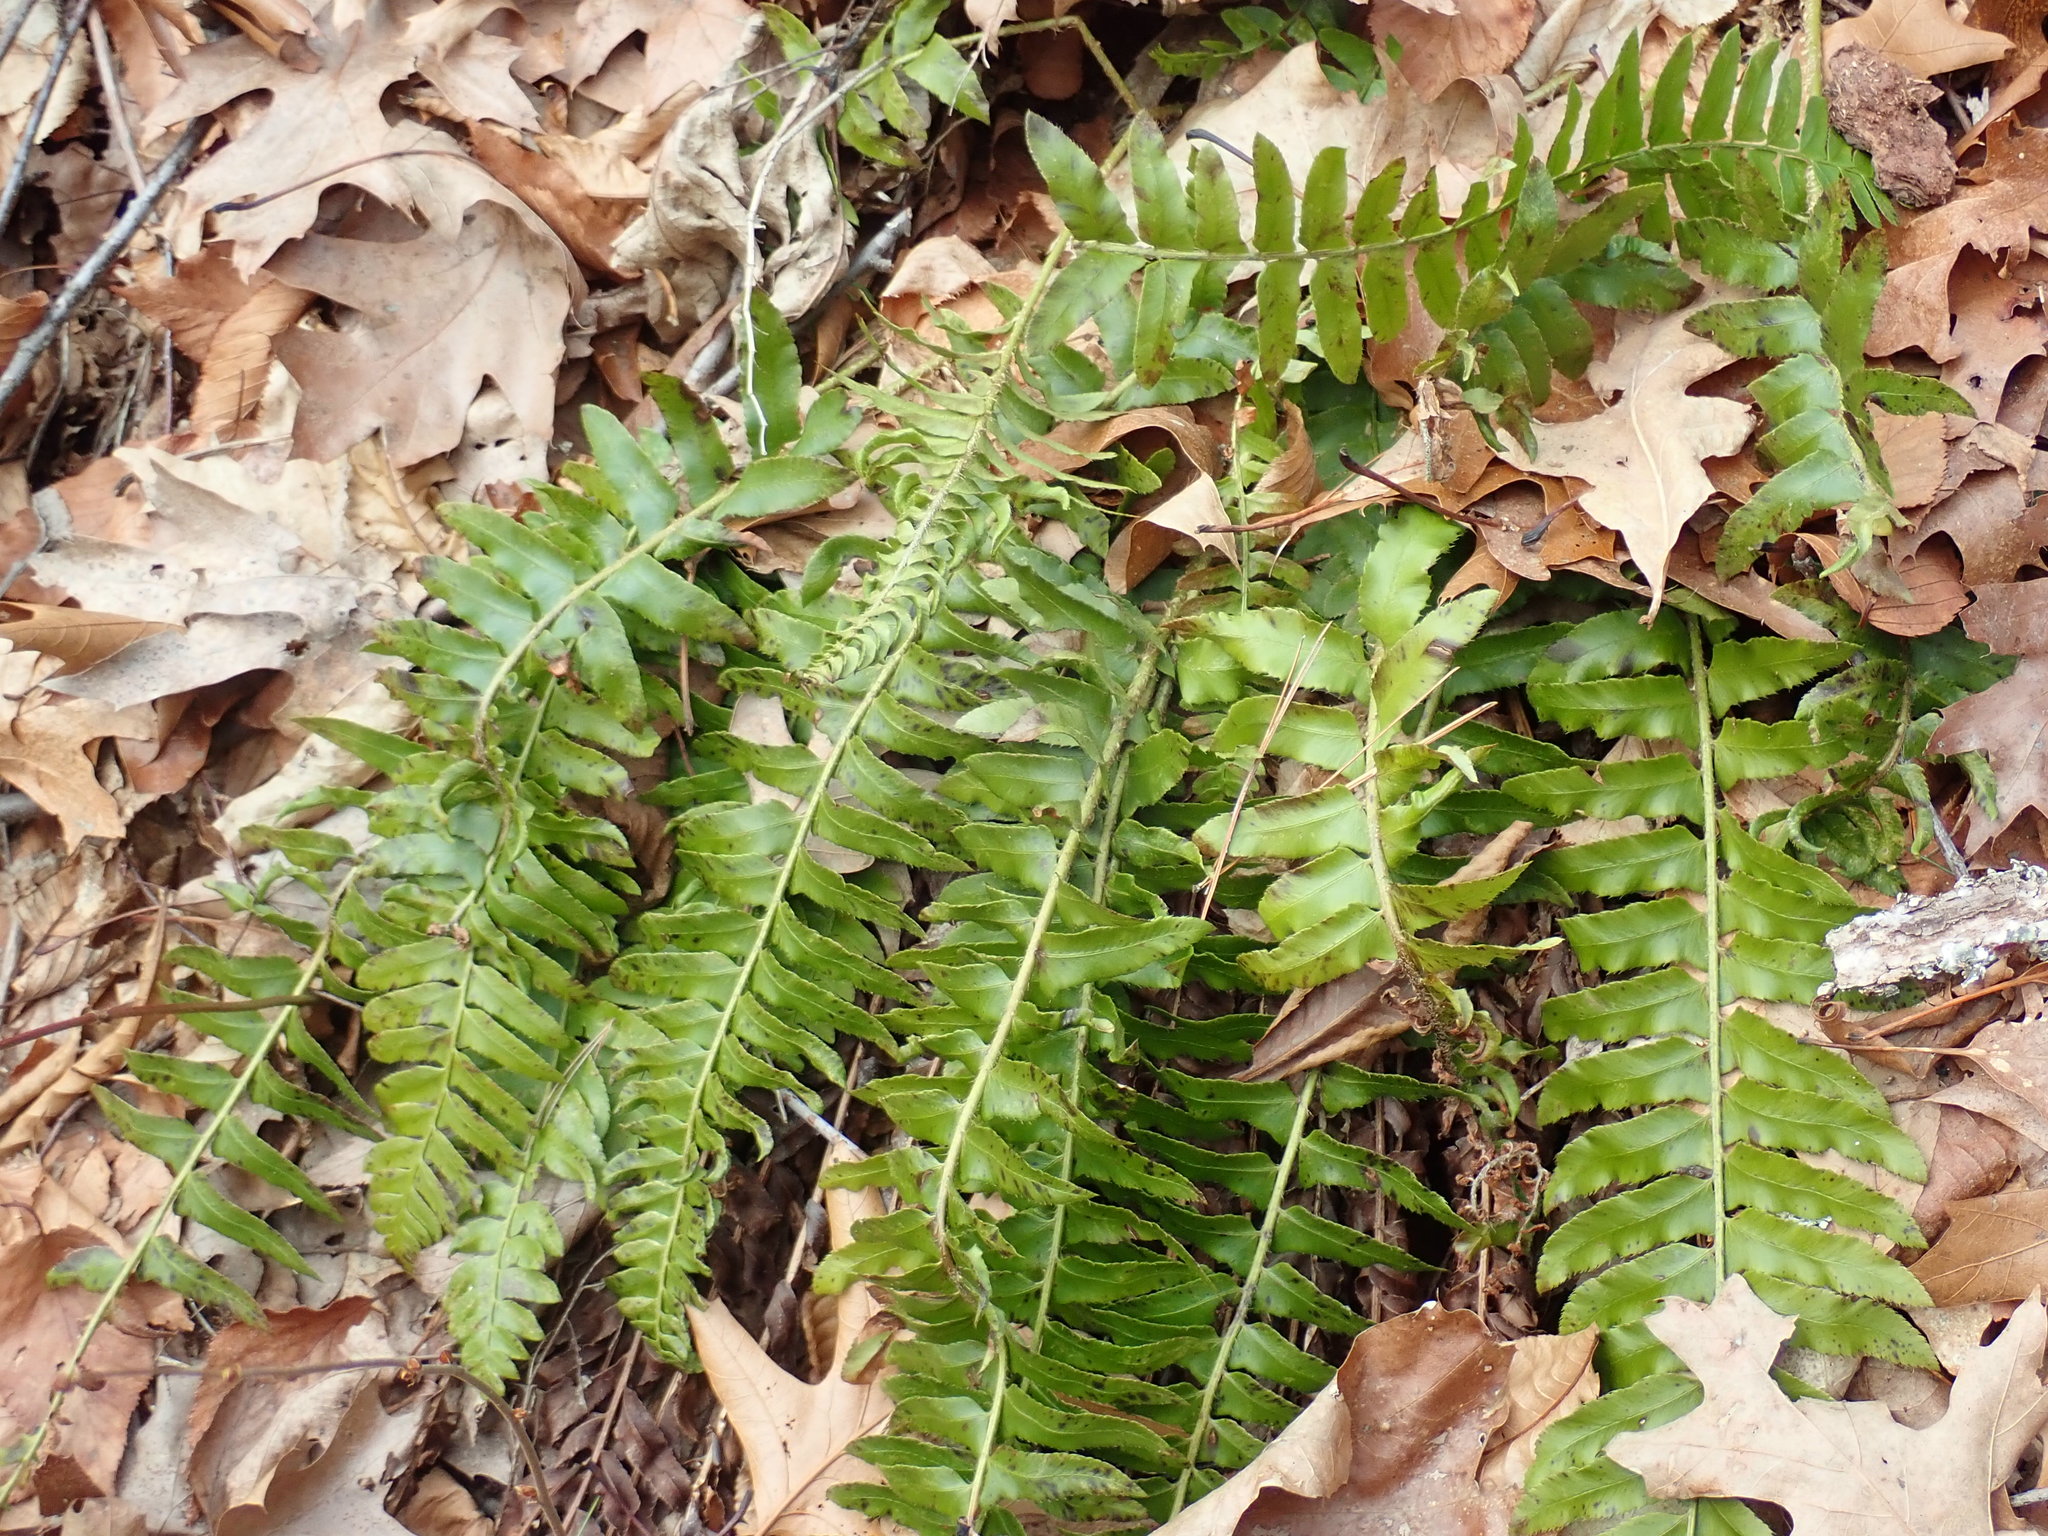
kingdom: Plantae
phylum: Tracheophyta
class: Polypodiopsida
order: Polypodiales
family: Dryopteridaceae
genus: Polystichum
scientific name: Polystichum acrostichoides
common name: Christmas fern
